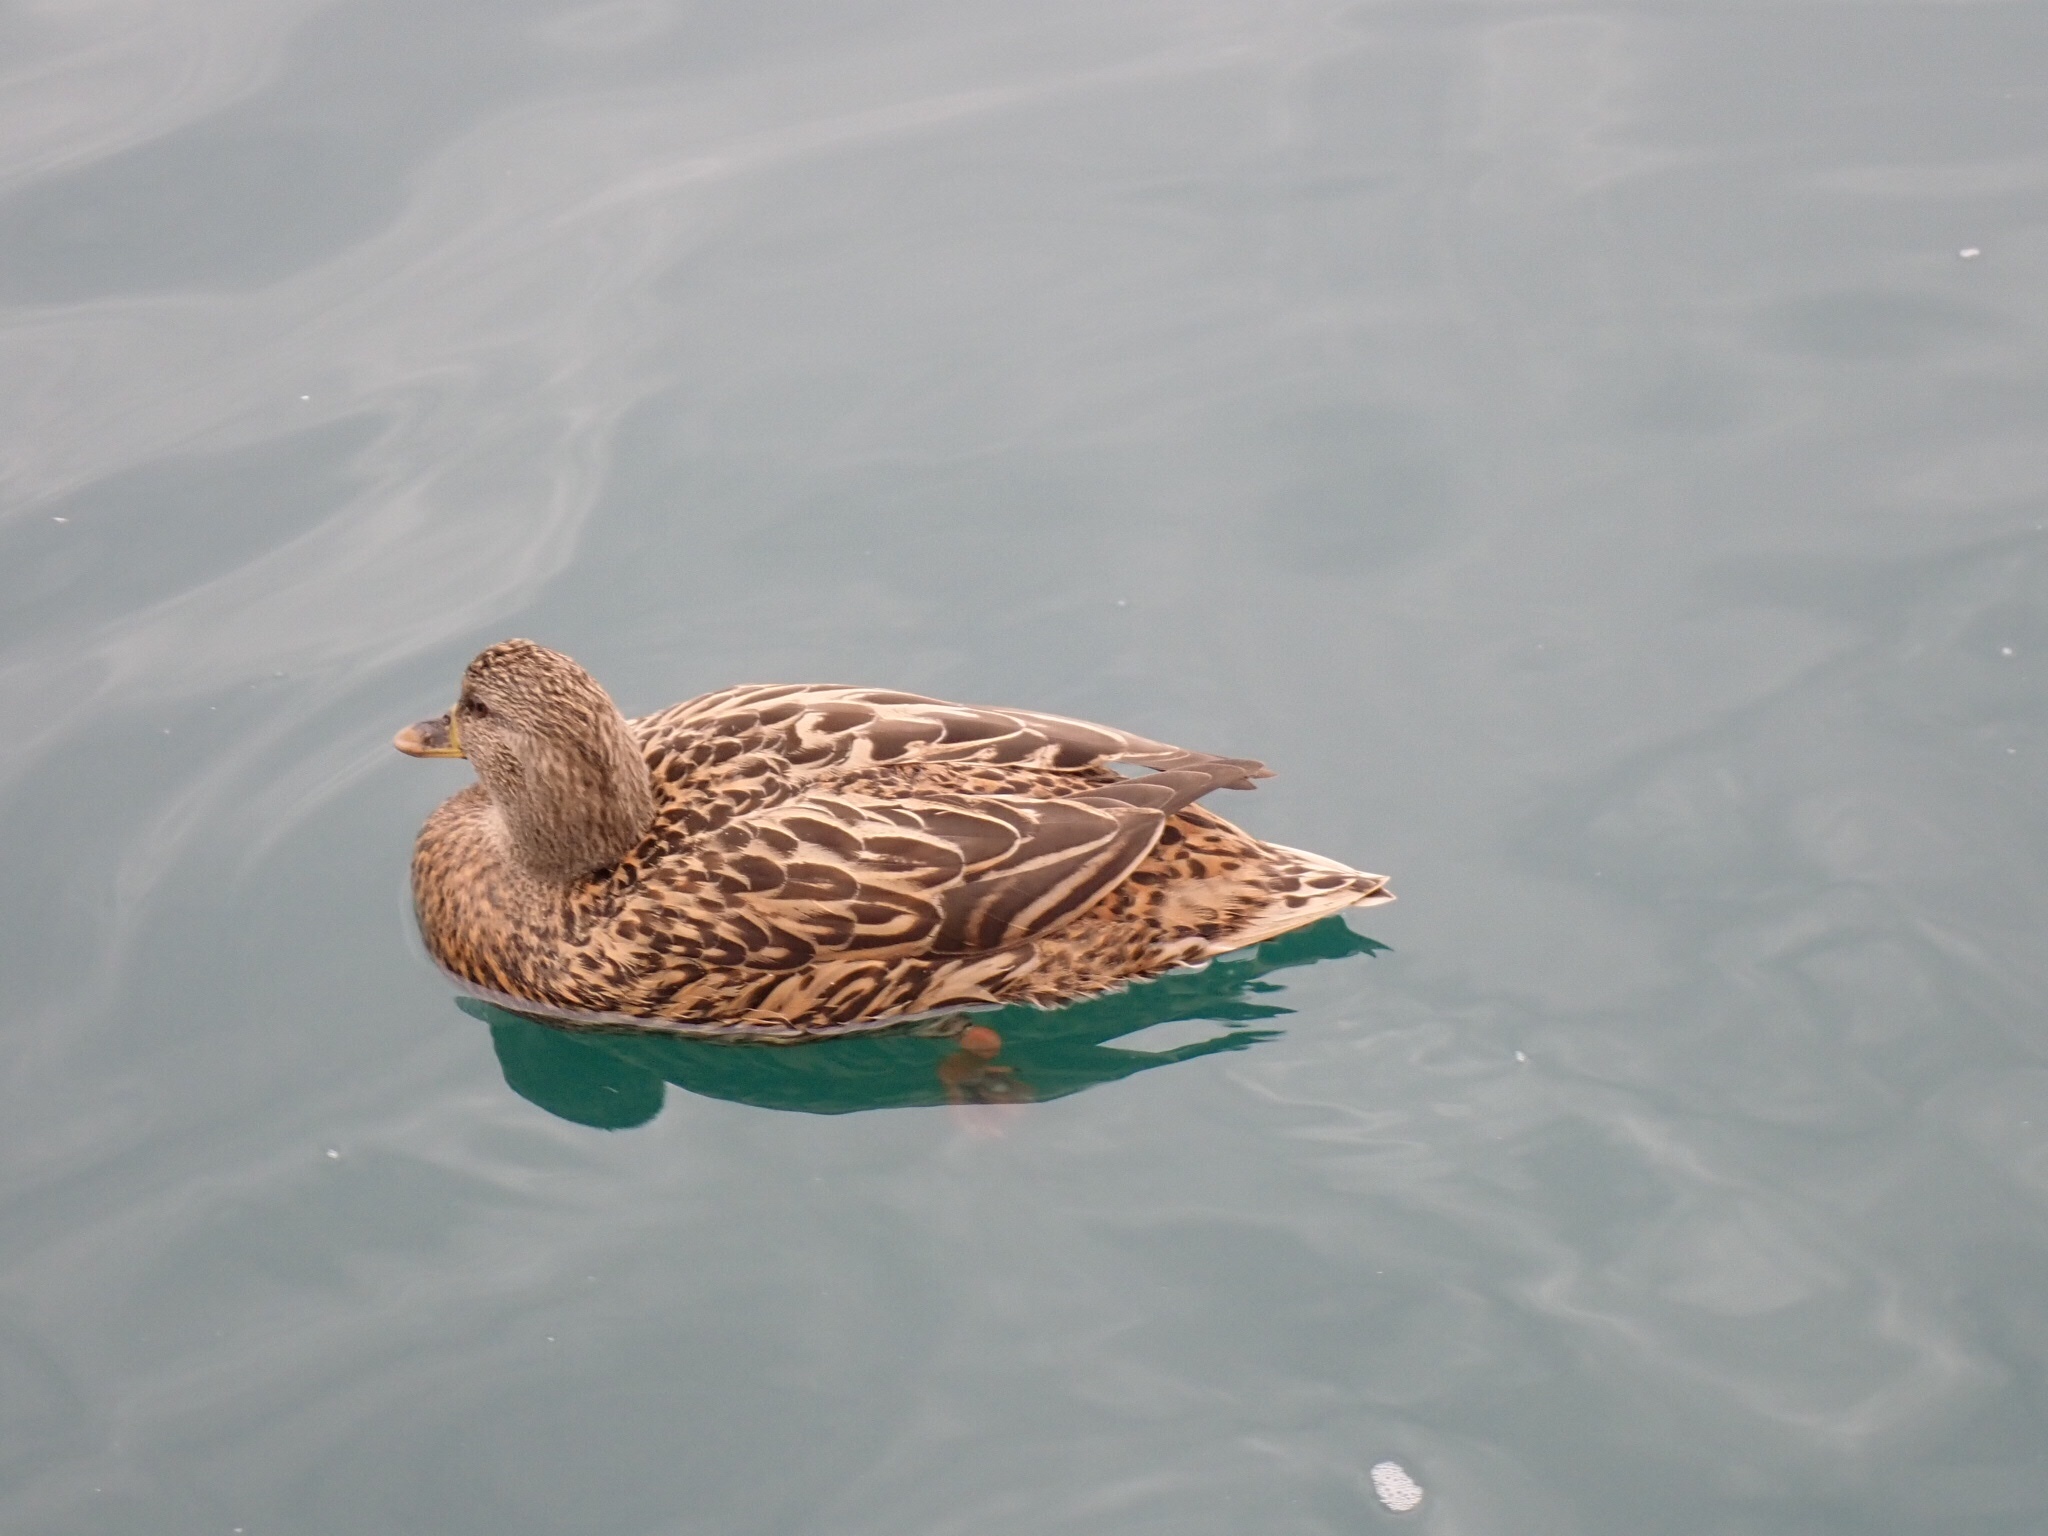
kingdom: Animalia
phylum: Chordata
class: Aves
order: Anseriformes
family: Anatidae
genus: Anas
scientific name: Anas platyrhynchos
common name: Mallard
